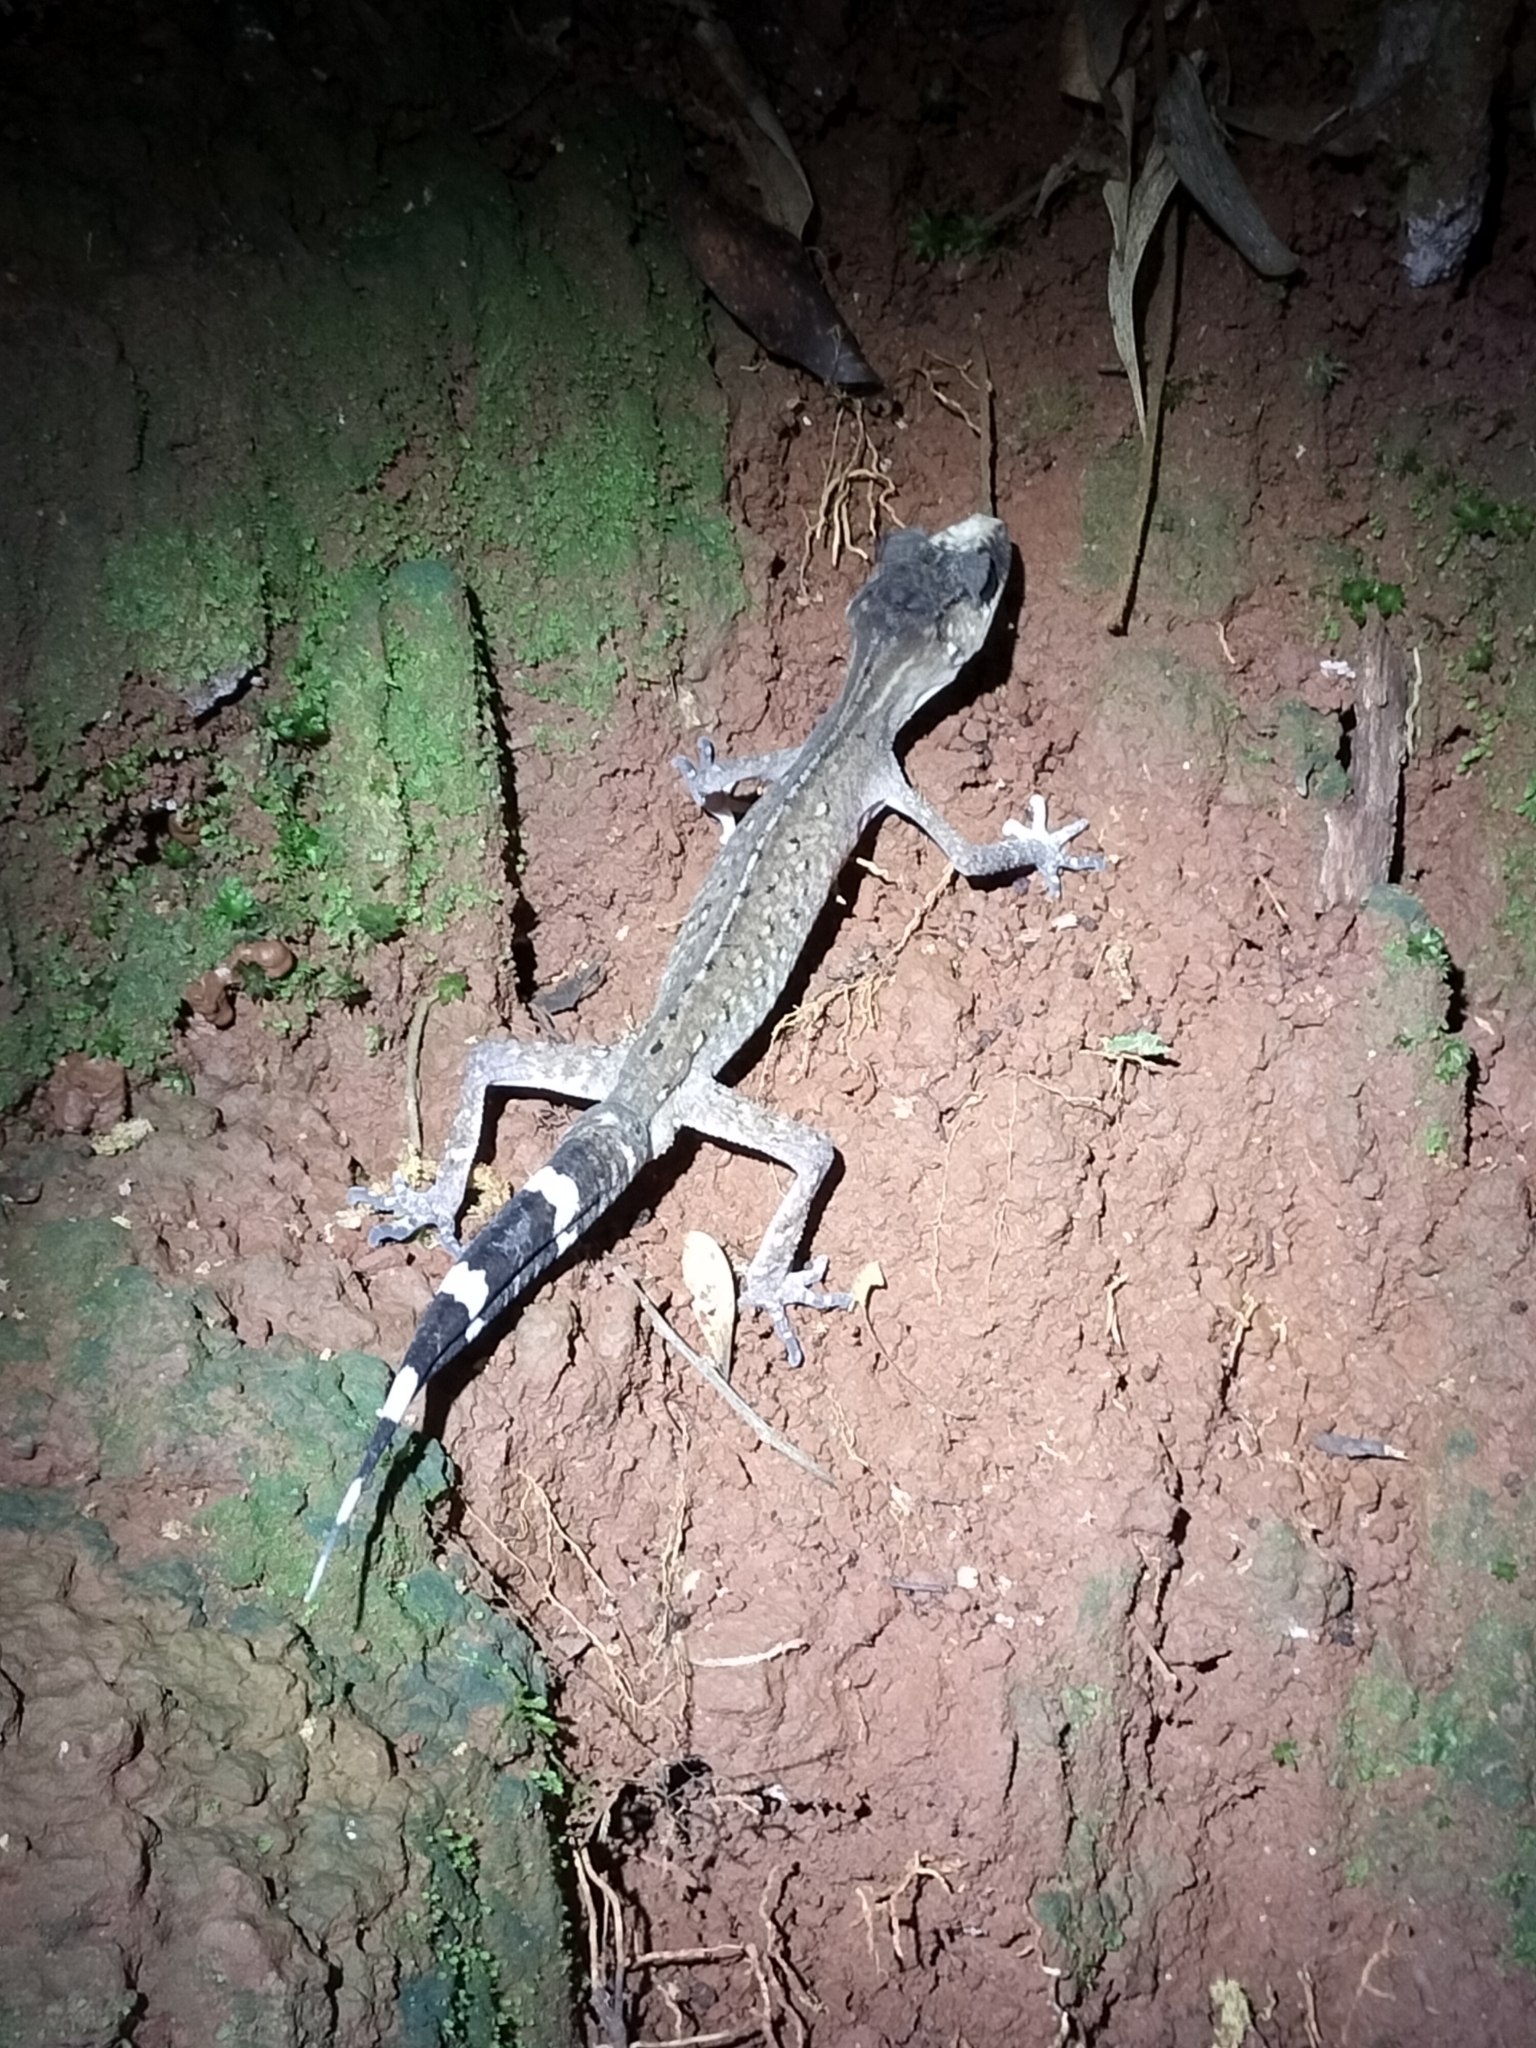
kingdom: Animalia
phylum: Chordata
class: Squamata
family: Carphodactylidae
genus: Carphodactylus
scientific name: Carphodactylus laevis
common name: Chameleon gecko
